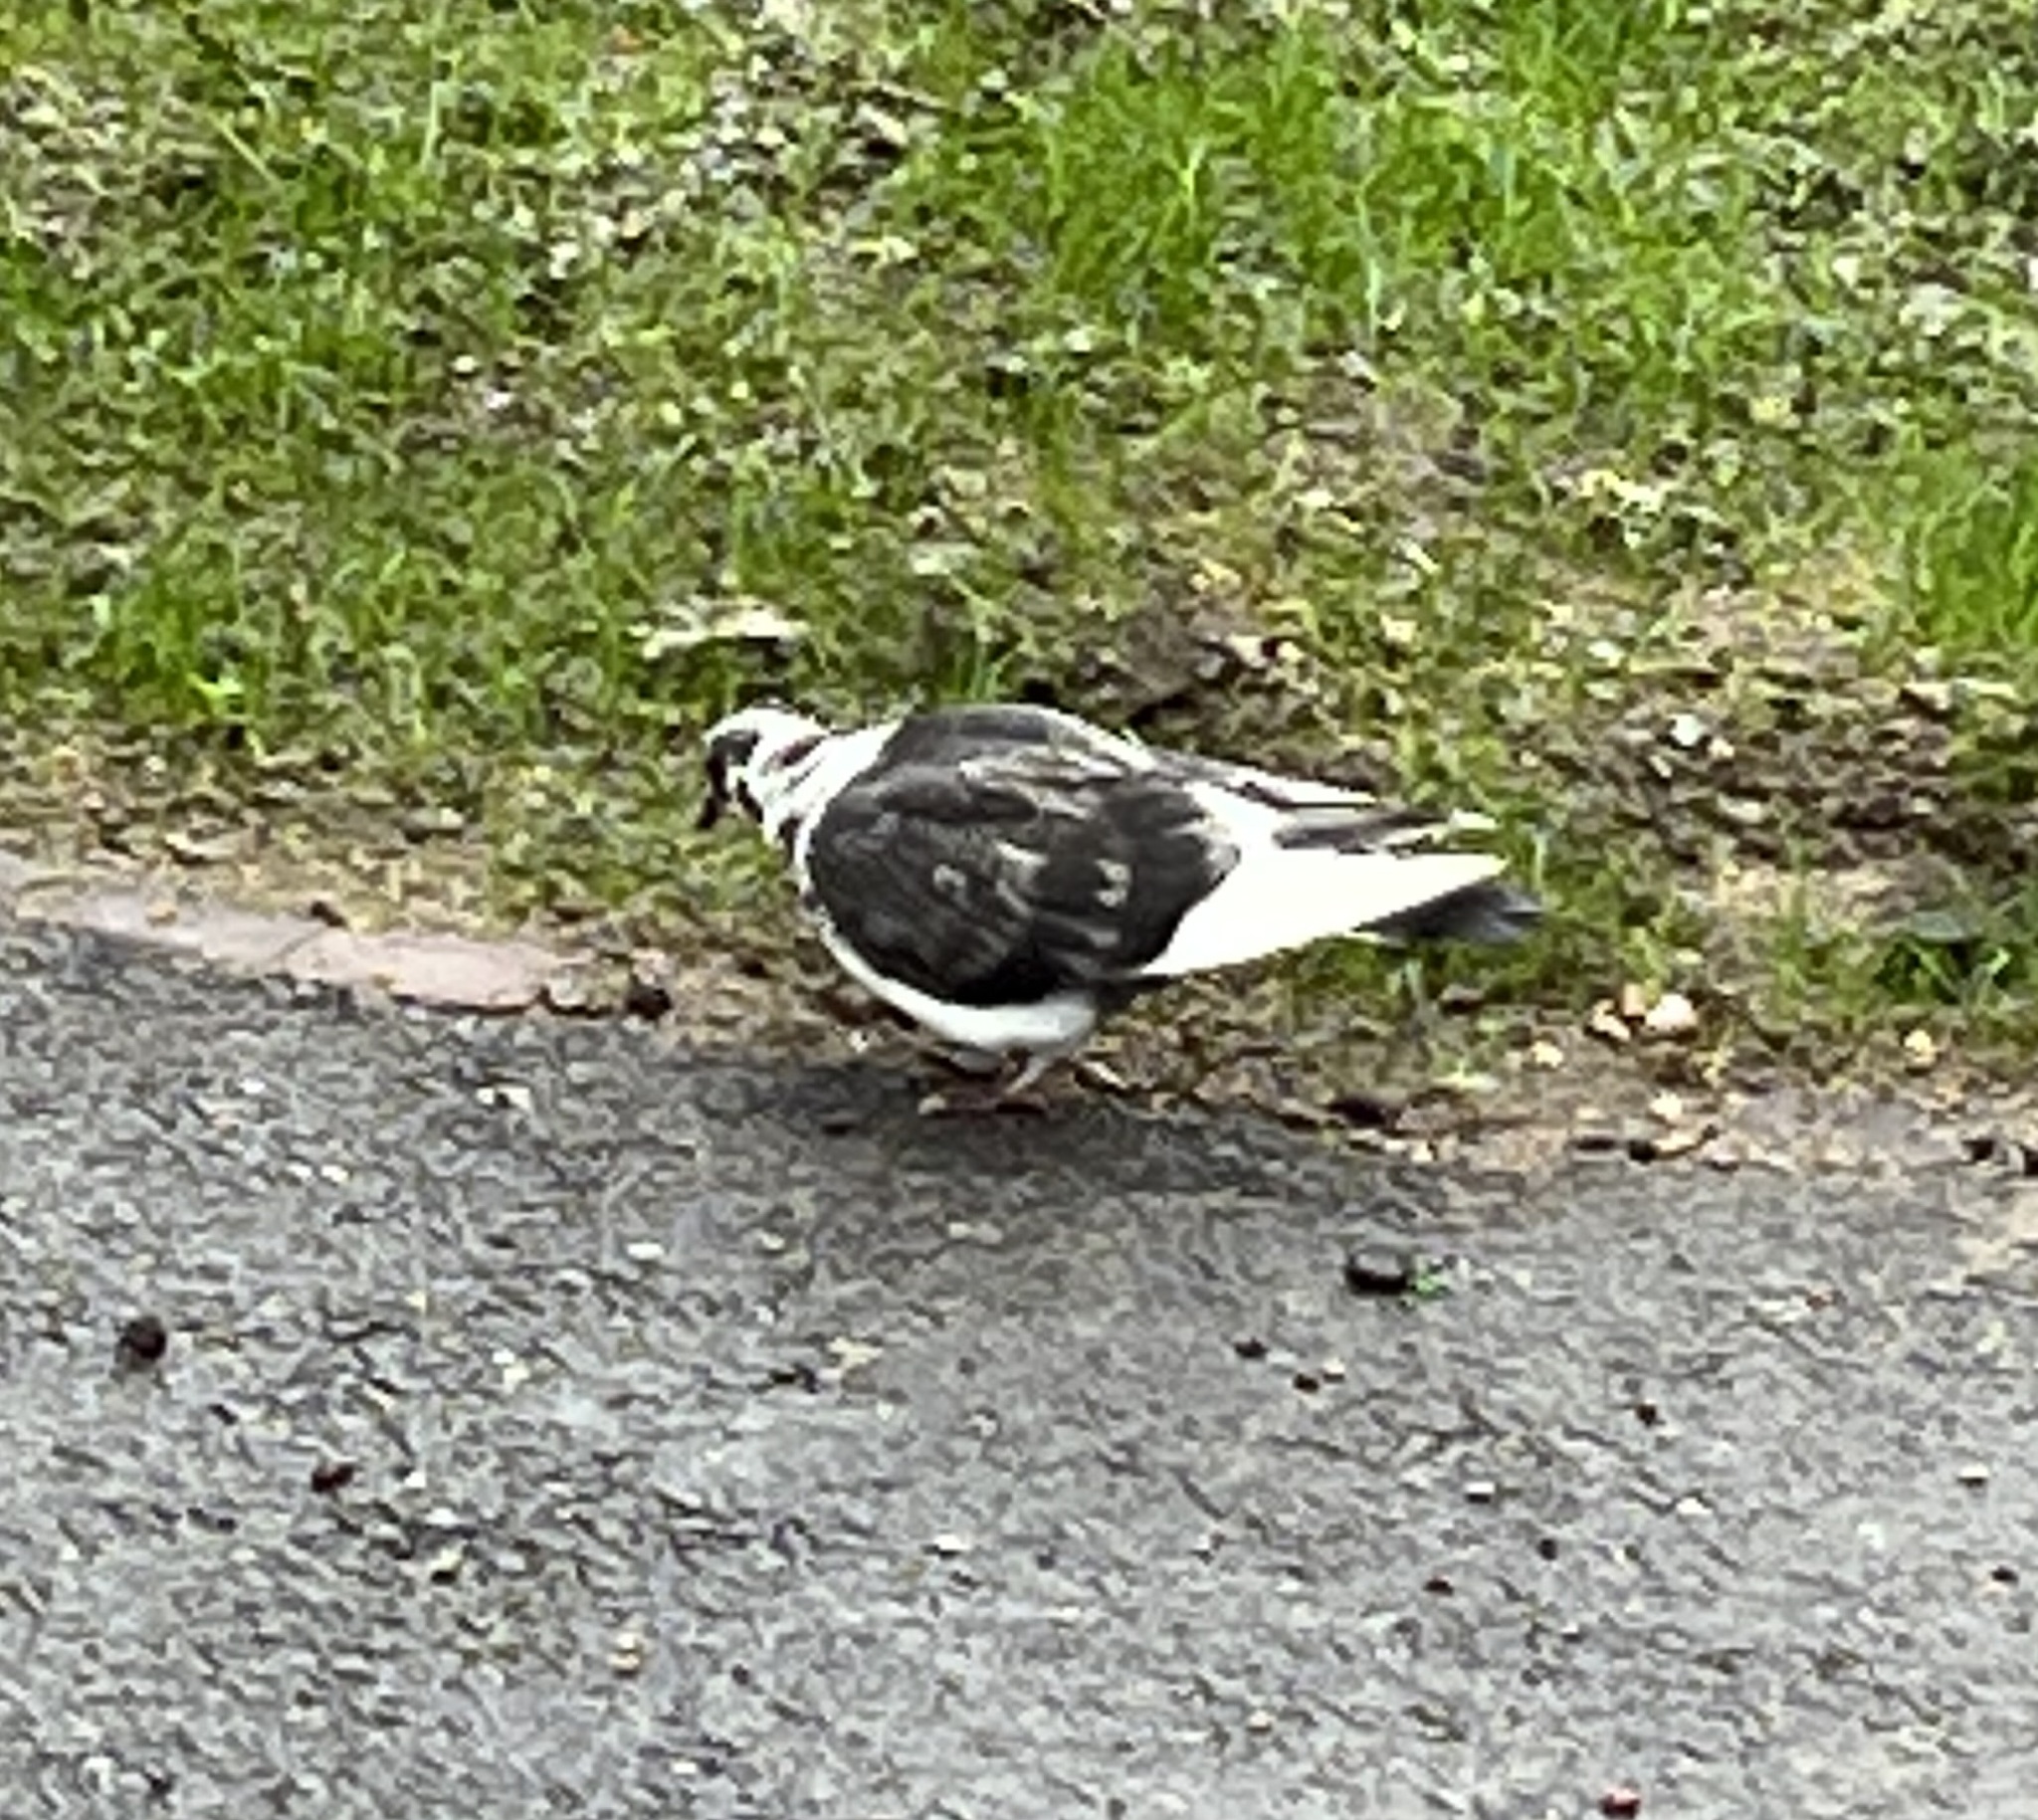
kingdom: Animalia
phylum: Chordata
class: Aves
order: Columbiformes
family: Columbidae
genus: Columba
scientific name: Columba livia
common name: Rock pigeon
